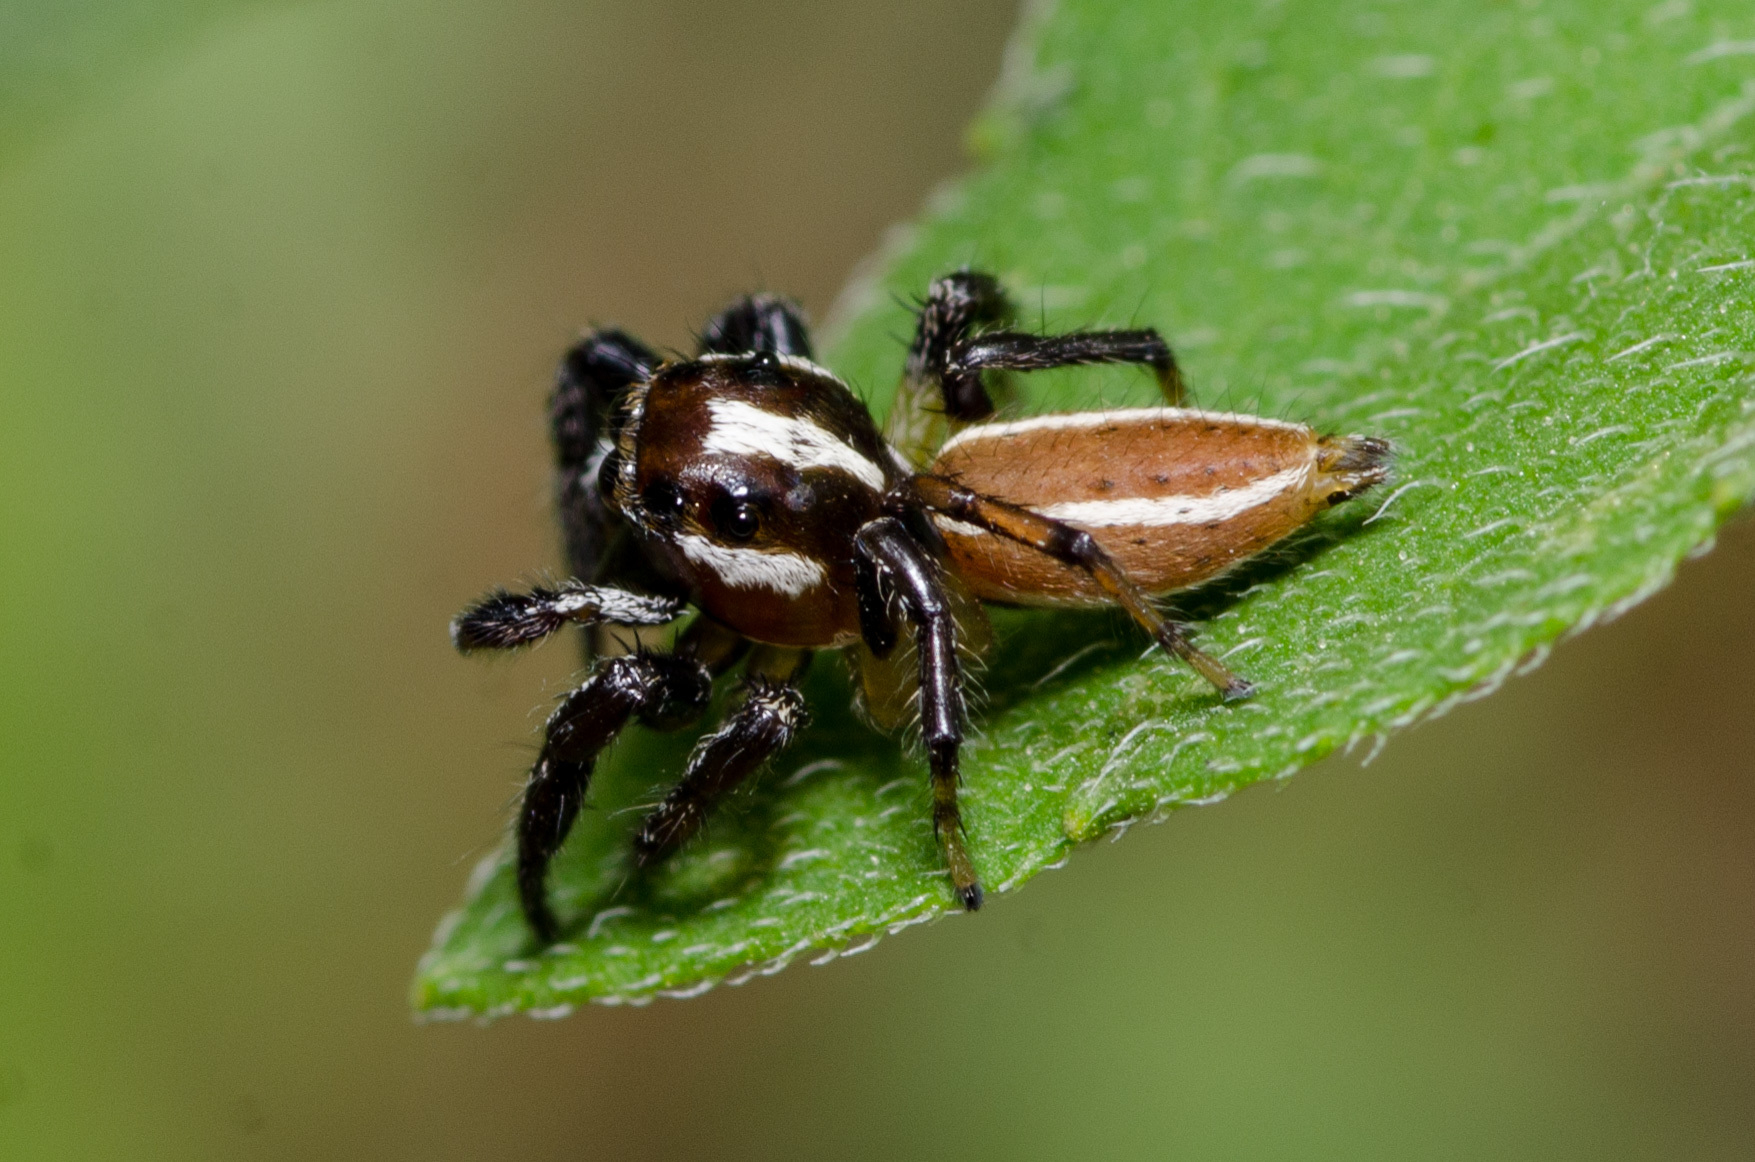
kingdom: Animalia
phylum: Arthropoda
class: Arachnida
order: Araneae
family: Salticidae
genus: Colonus
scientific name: Colonus puerperus
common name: Jumping spiders
